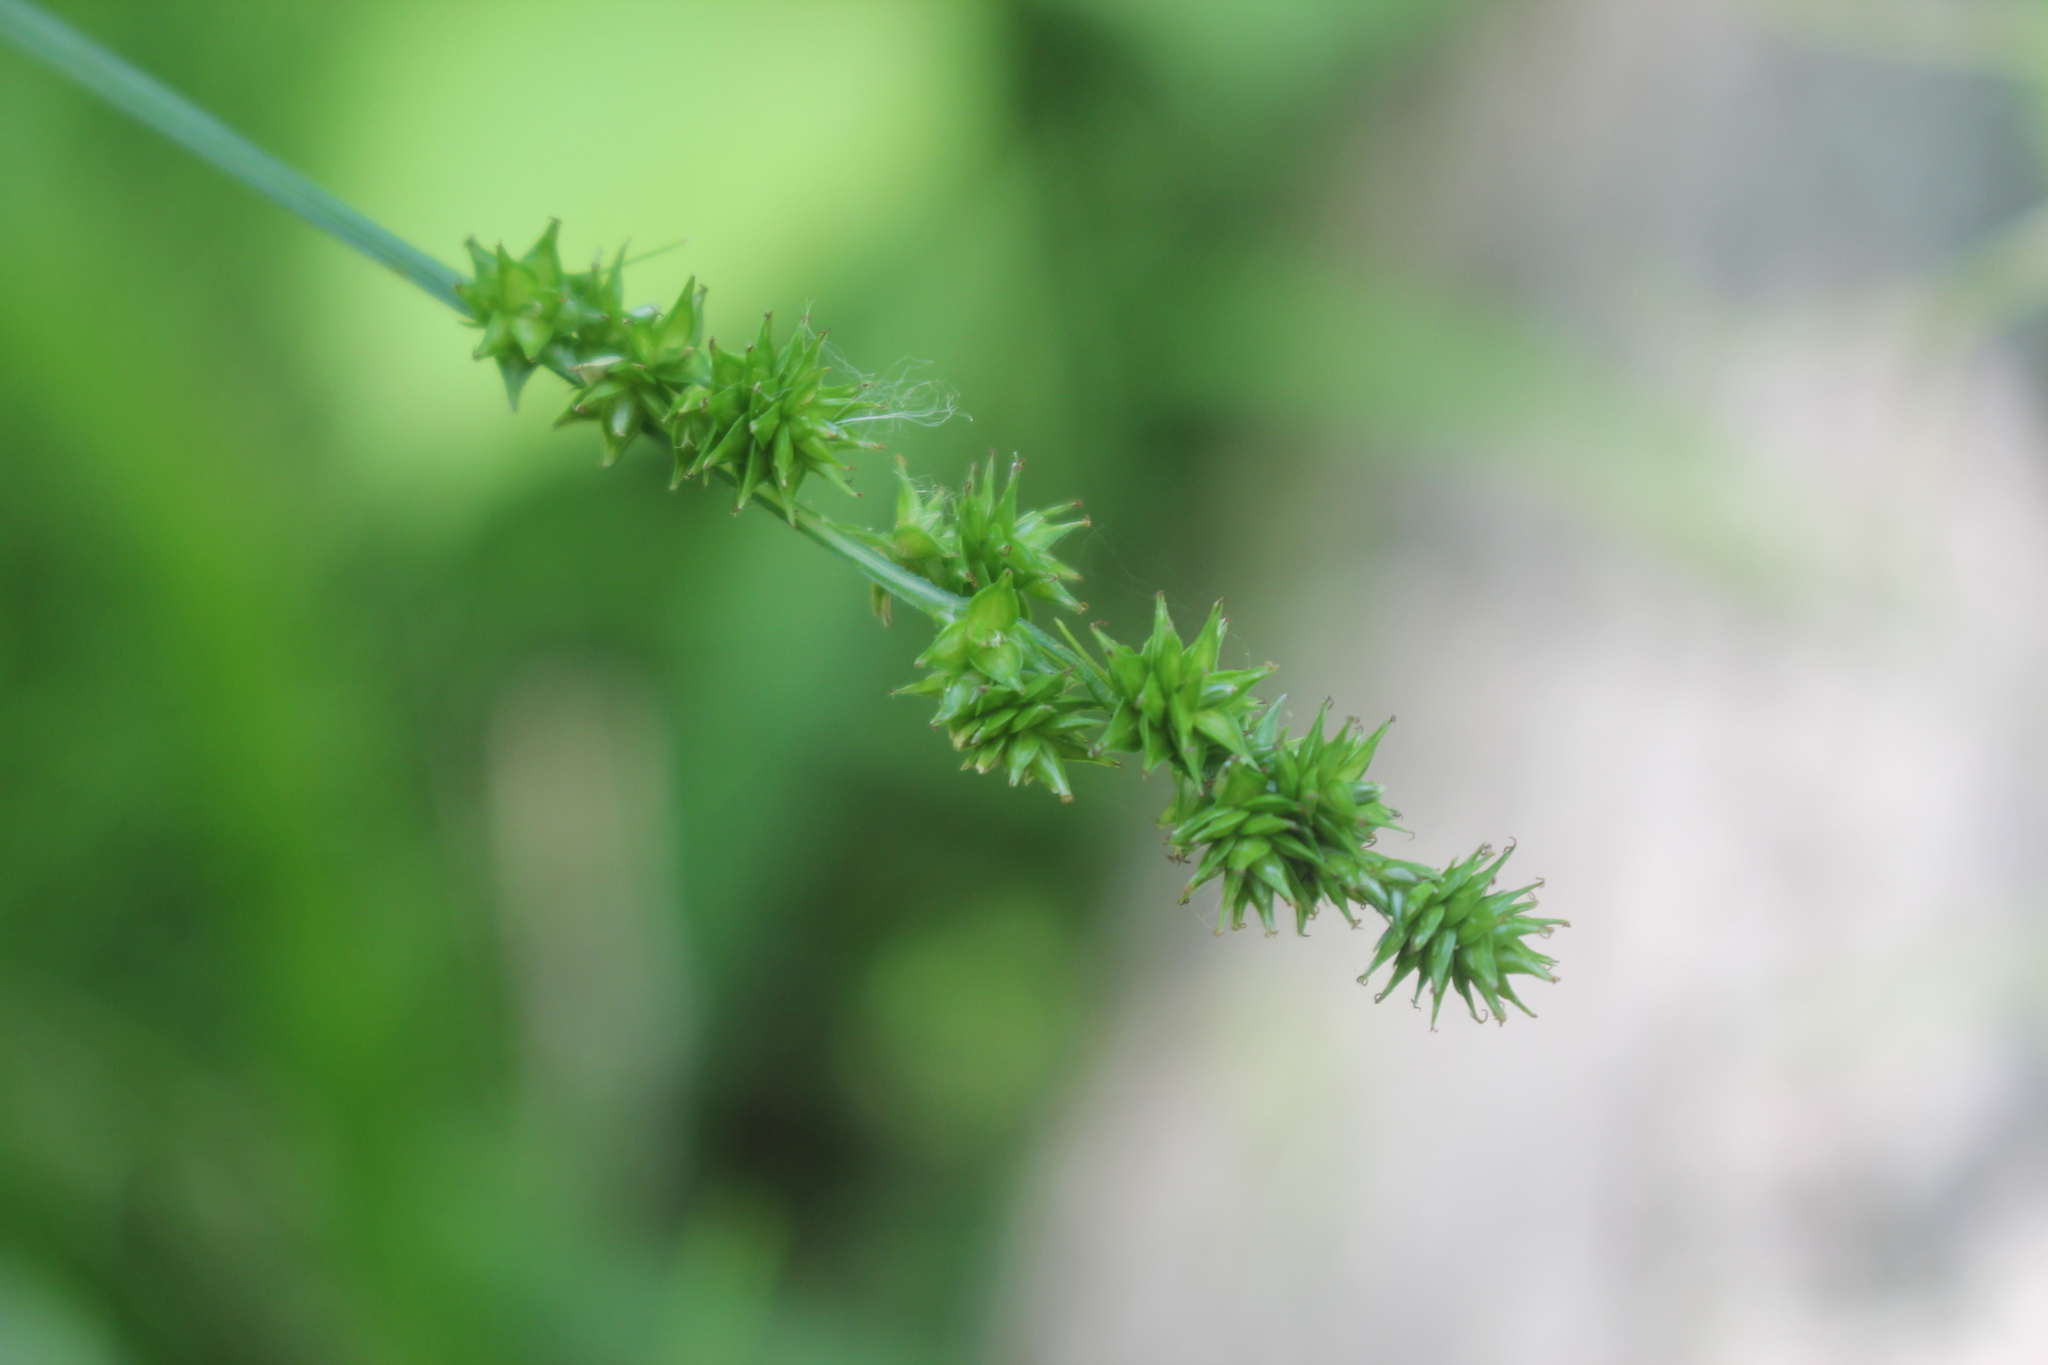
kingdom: Plantae
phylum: Tracheophyta
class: Liliopsida
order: Poales
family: Cyperaceae
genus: Carex
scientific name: Carex sparganioides
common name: Burreed sedge
